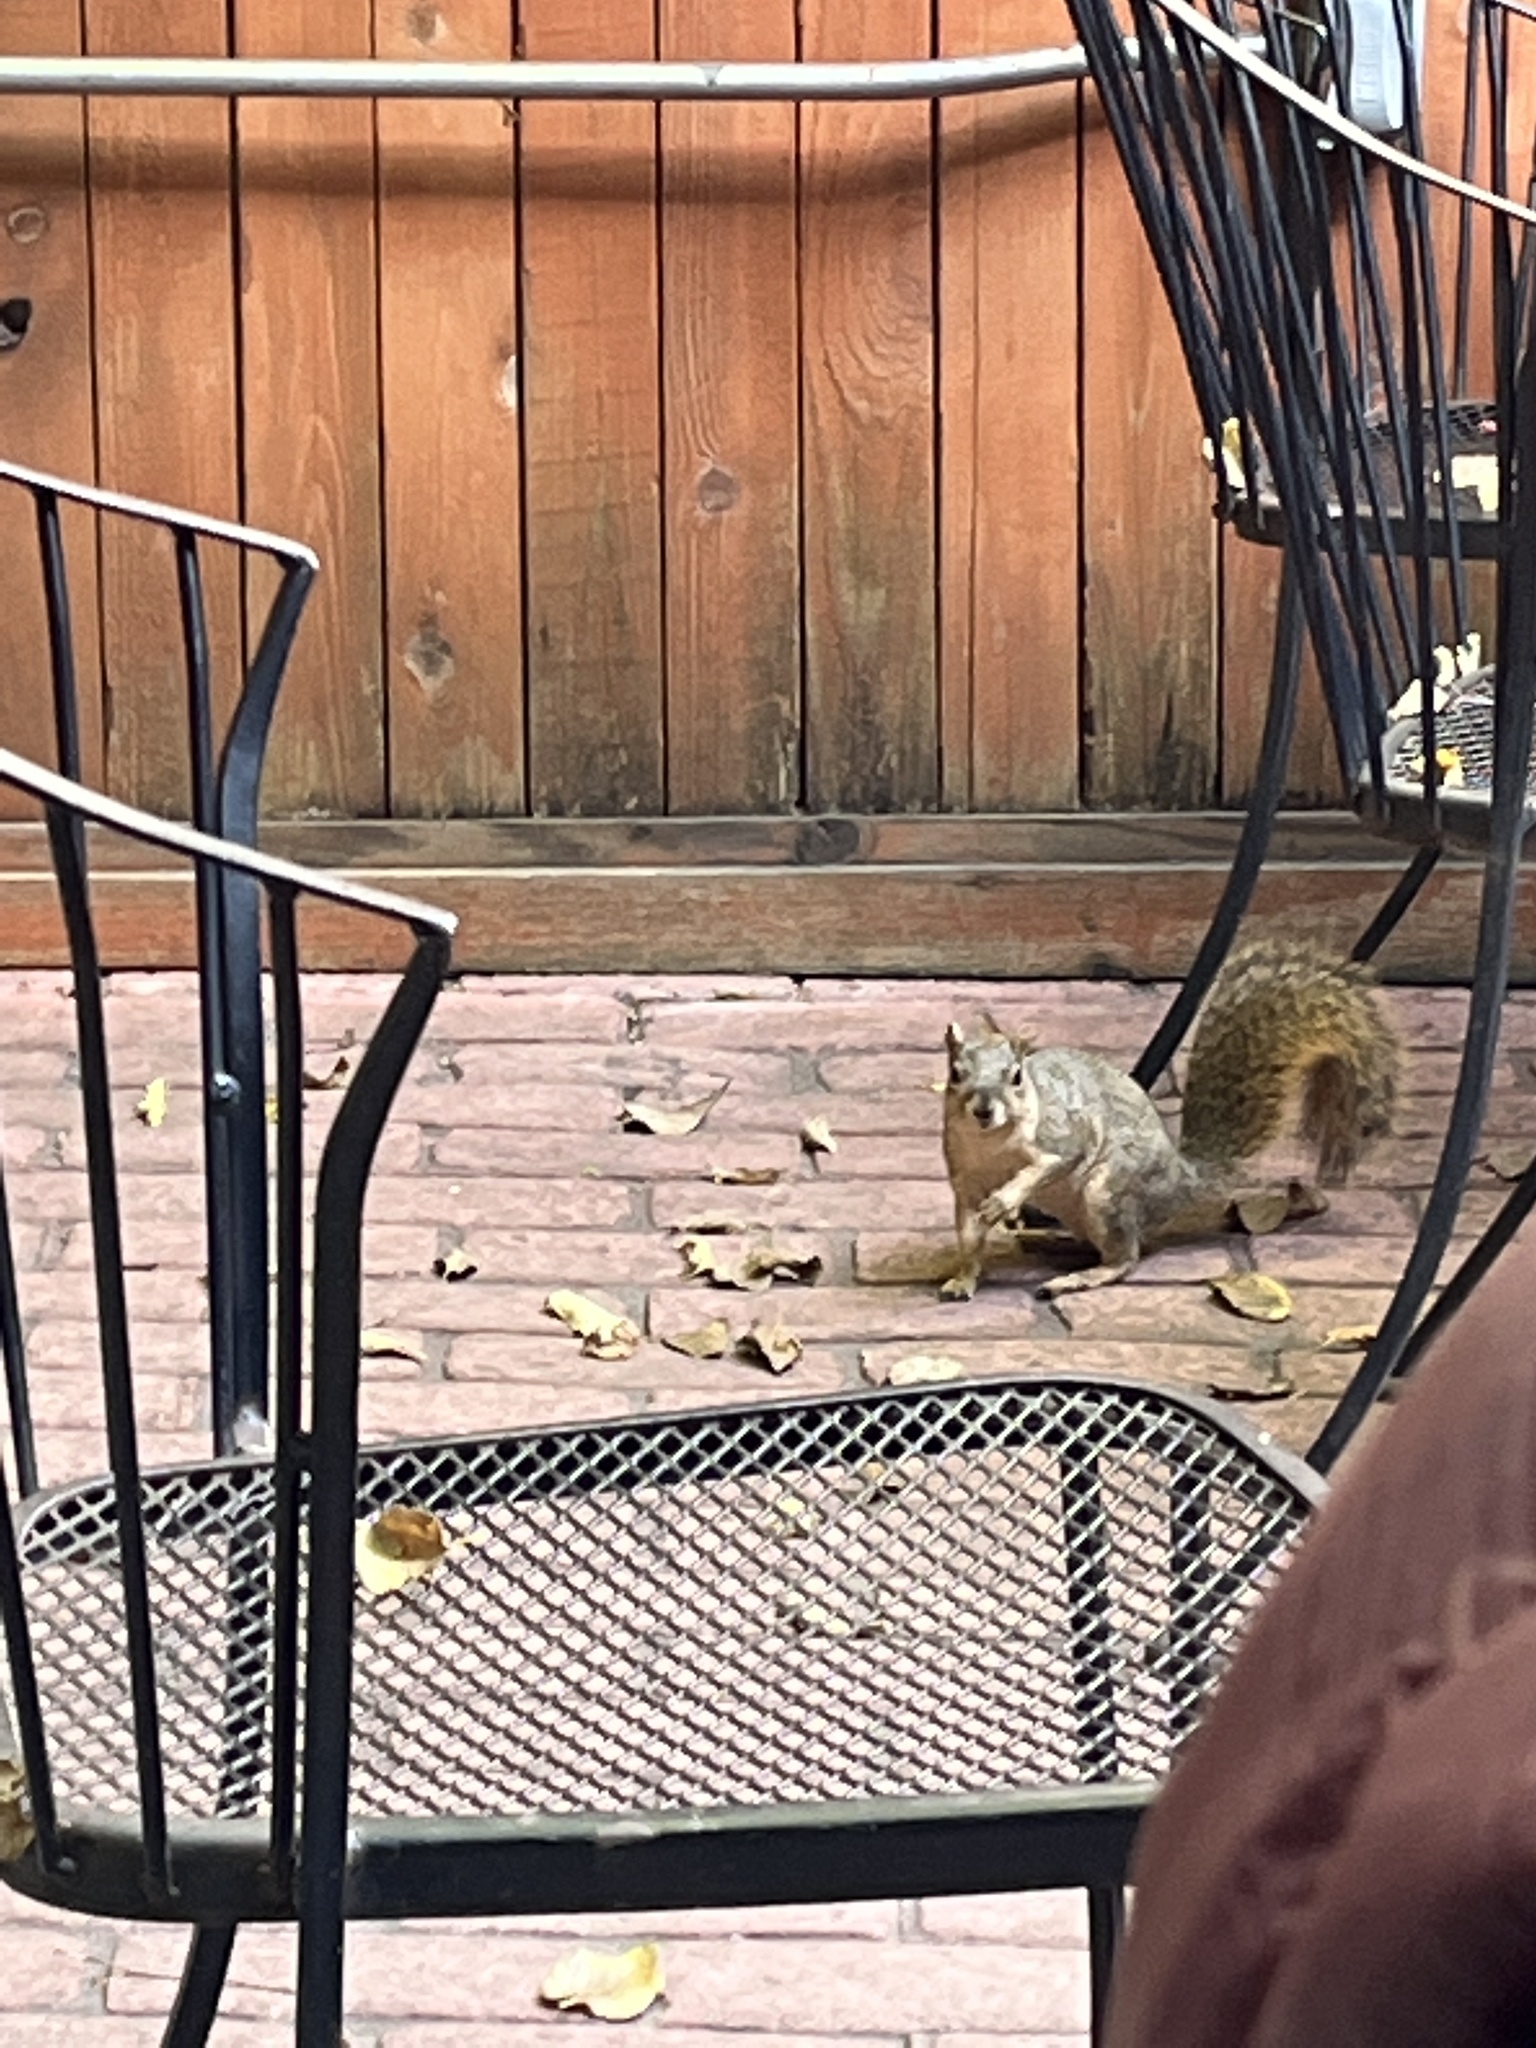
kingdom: Animalia
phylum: Chordata
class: Mammalia
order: Rodentia
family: Sciuridae
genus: Sciurus
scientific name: Sciurus niger
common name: Fox squirrel
